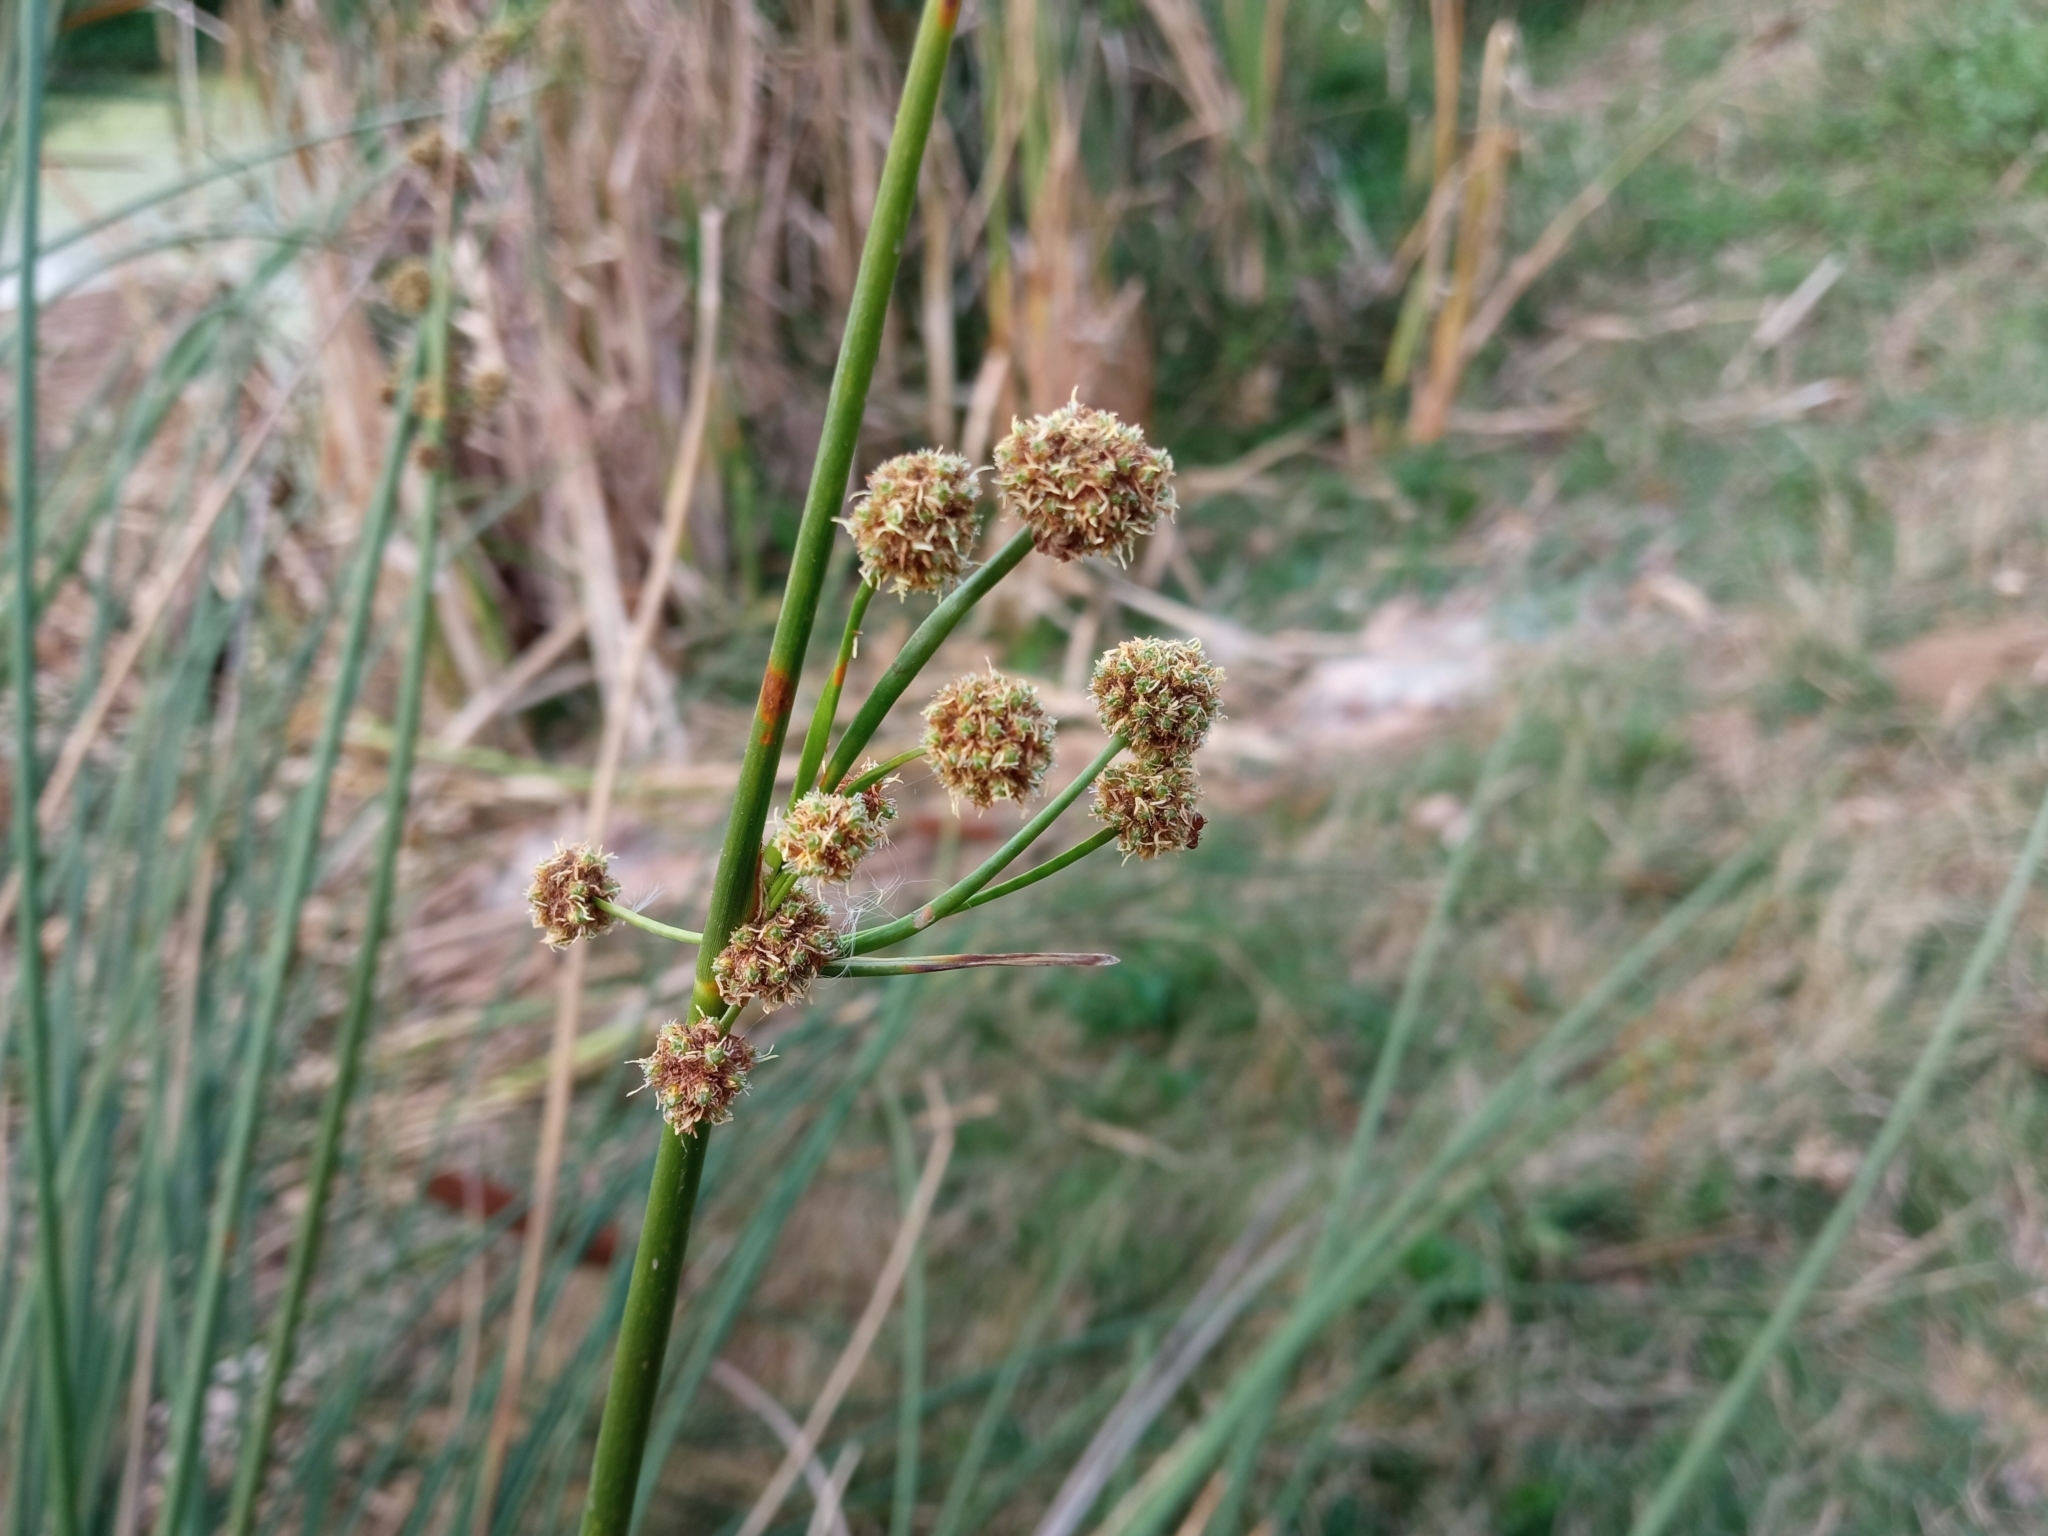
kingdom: Plantae
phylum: Tracheophyta
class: Liliopsida
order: Poales
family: Cyperaceae
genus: Scirpoides
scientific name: Scirpoides holoschoenus
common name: Round-headed club-rush
